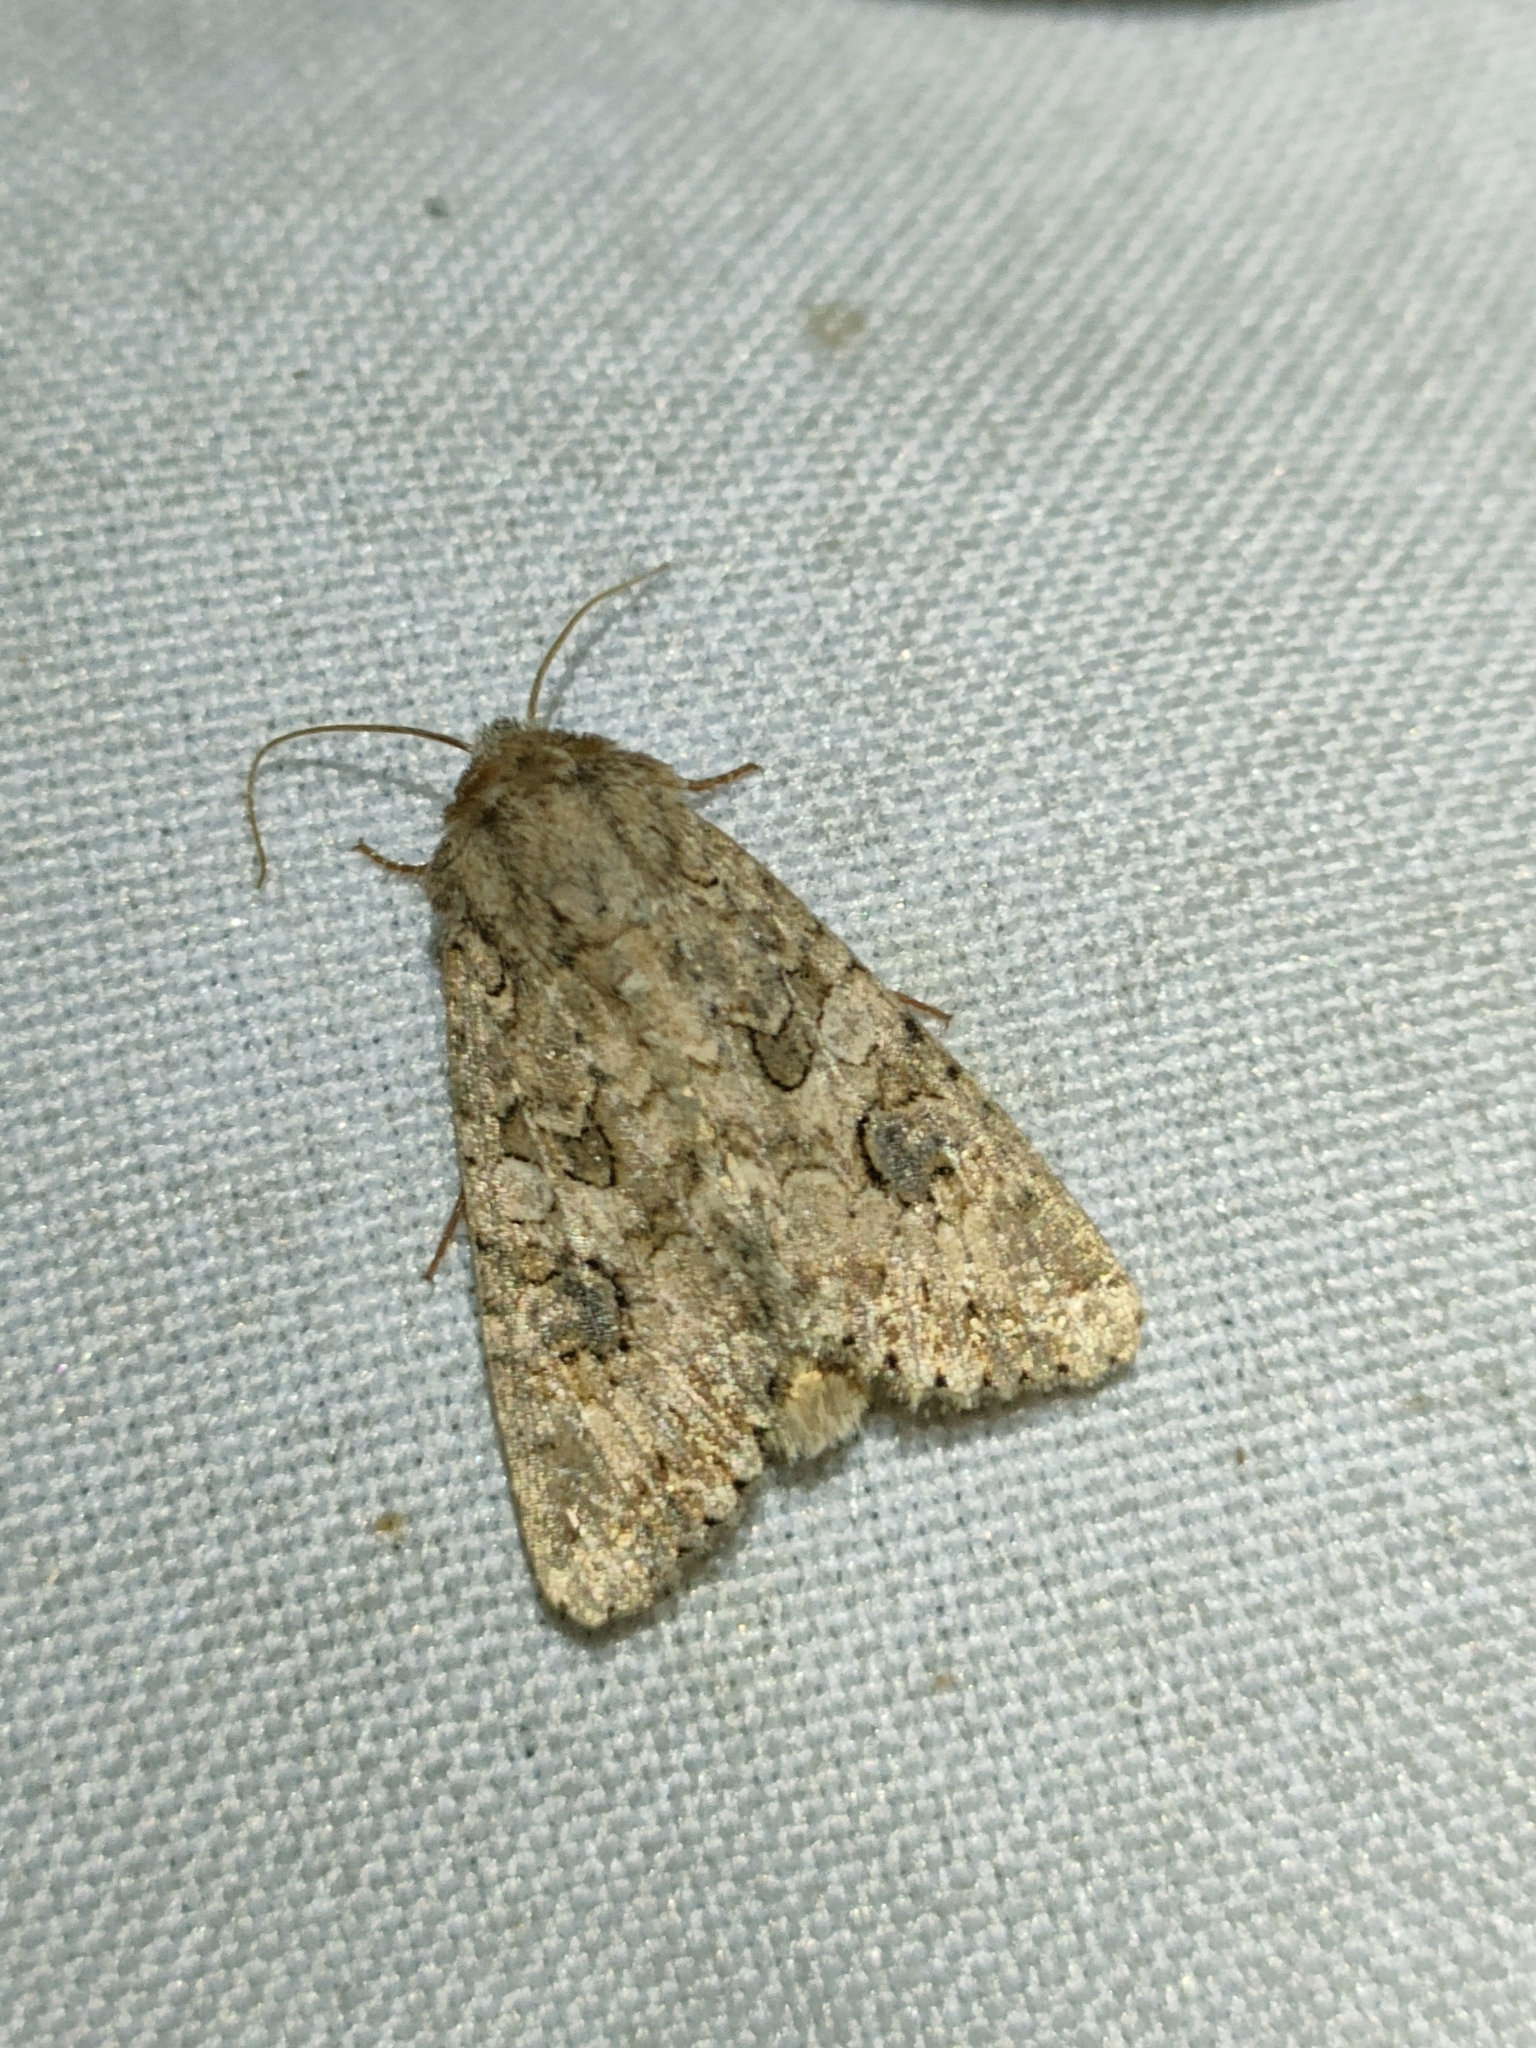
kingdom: Animalia
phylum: Arthropoda
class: Insecta
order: Lepidoptera
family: Noctuidae
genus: Anarta
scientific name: Anarta trifolii
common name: Clover cutworm moth
